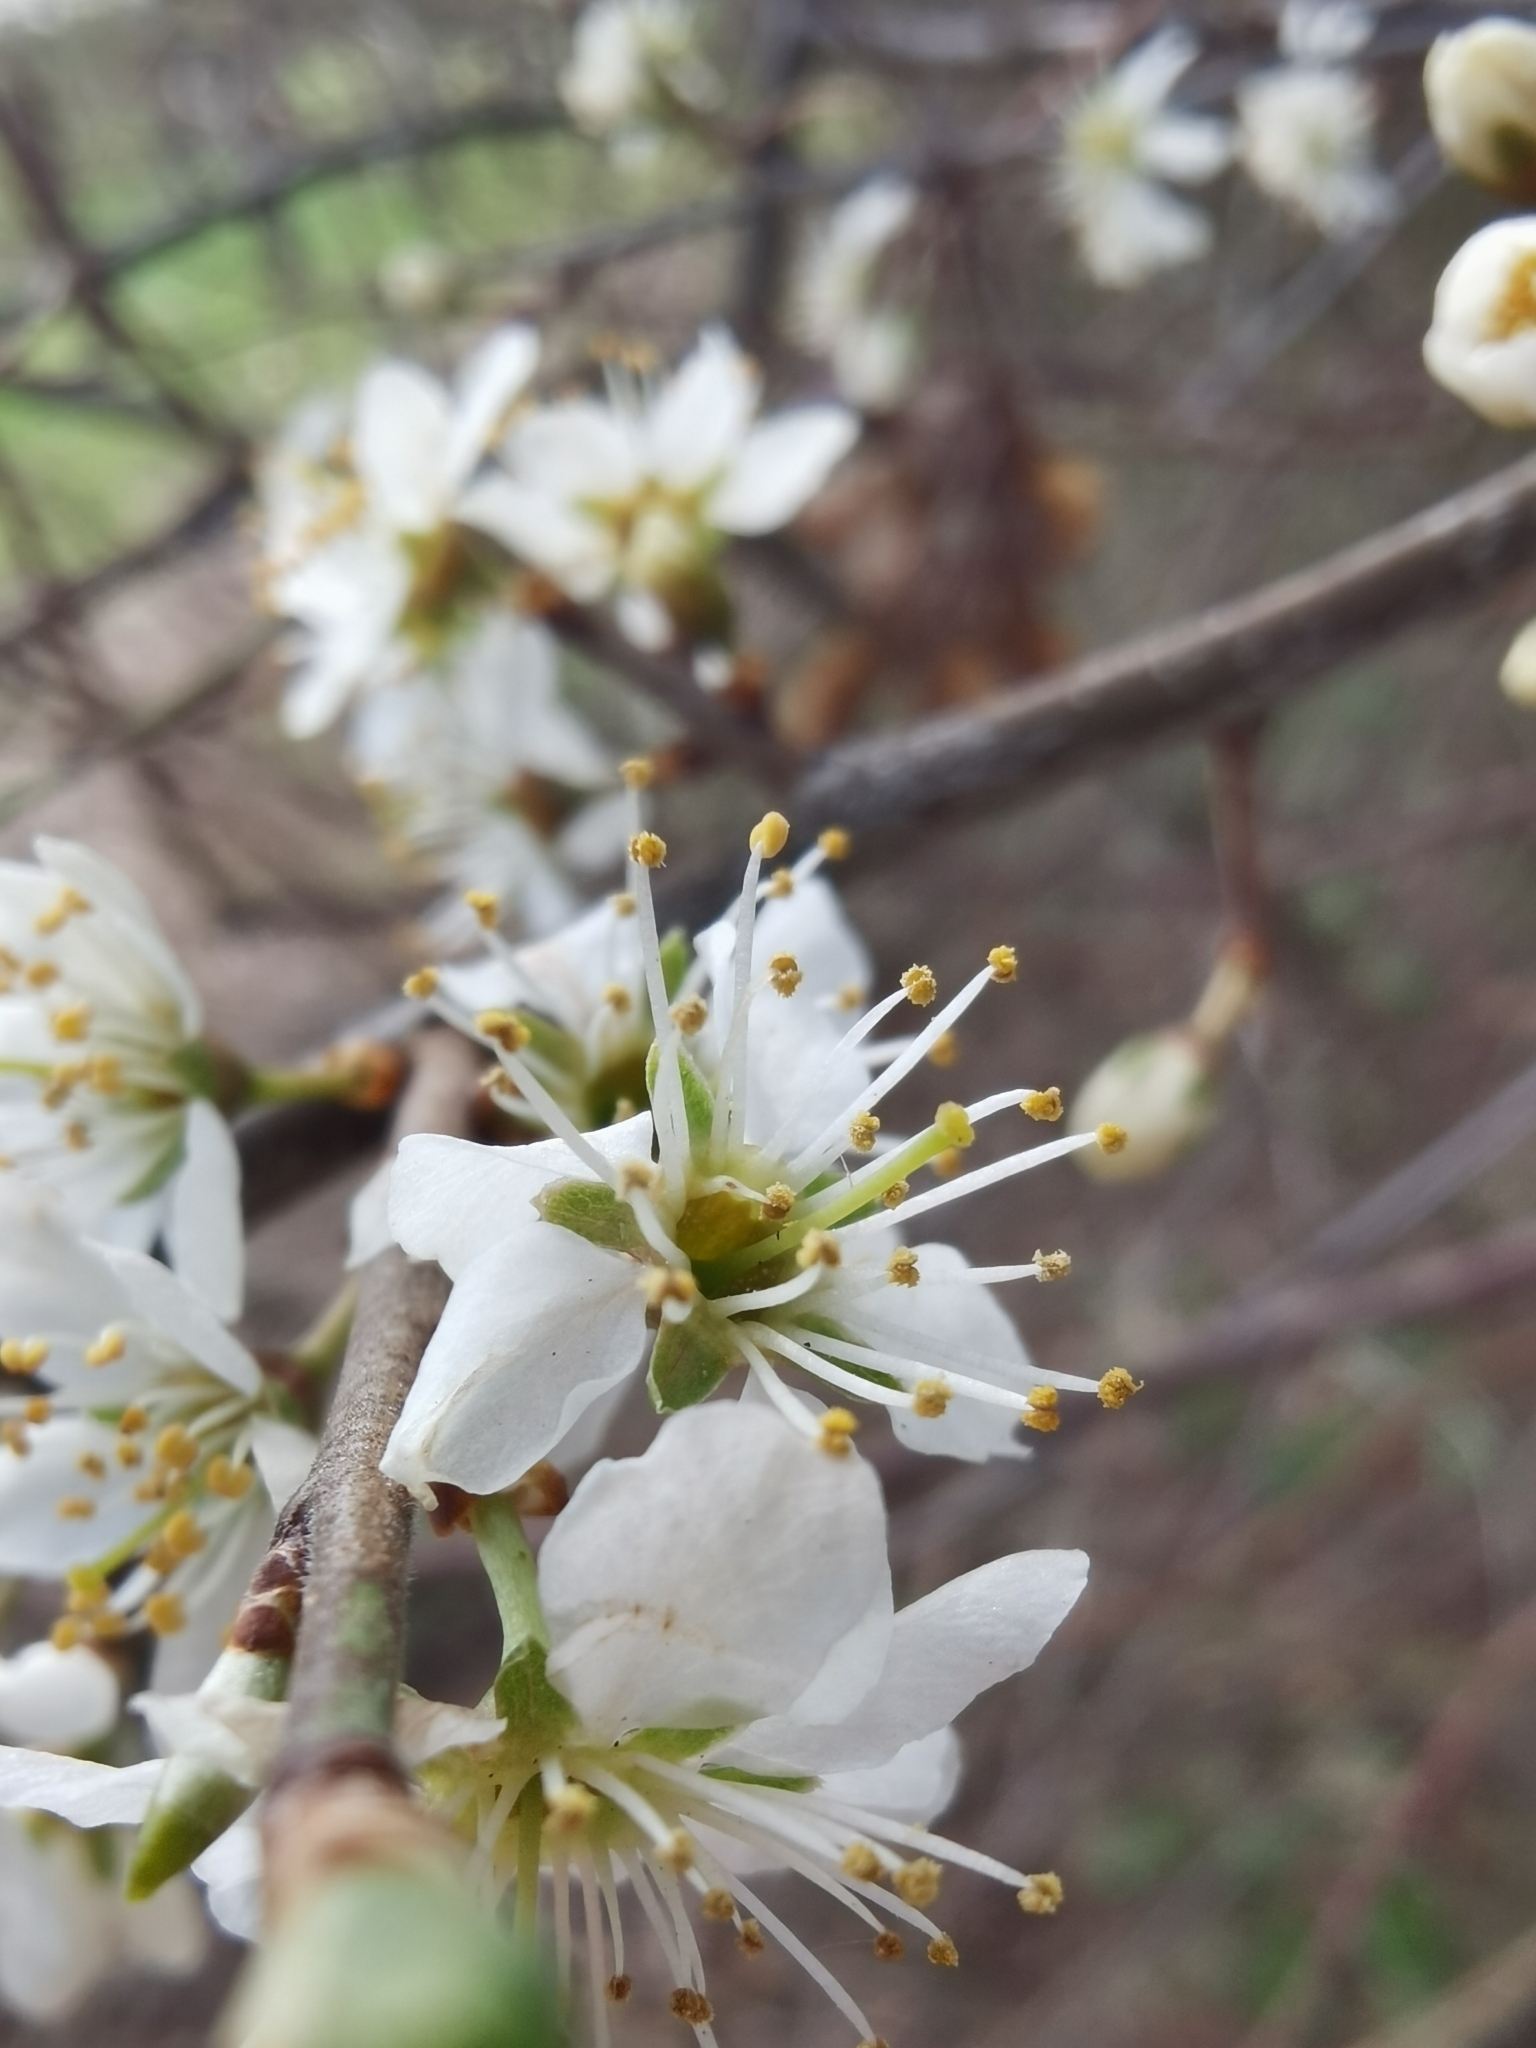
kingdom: Plantae
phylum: Tracheophyta
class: Magnoliopsida
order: Rosales
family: Rosaceae
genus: Prunus
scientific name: Prunus spinosa
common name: Blackthorn
